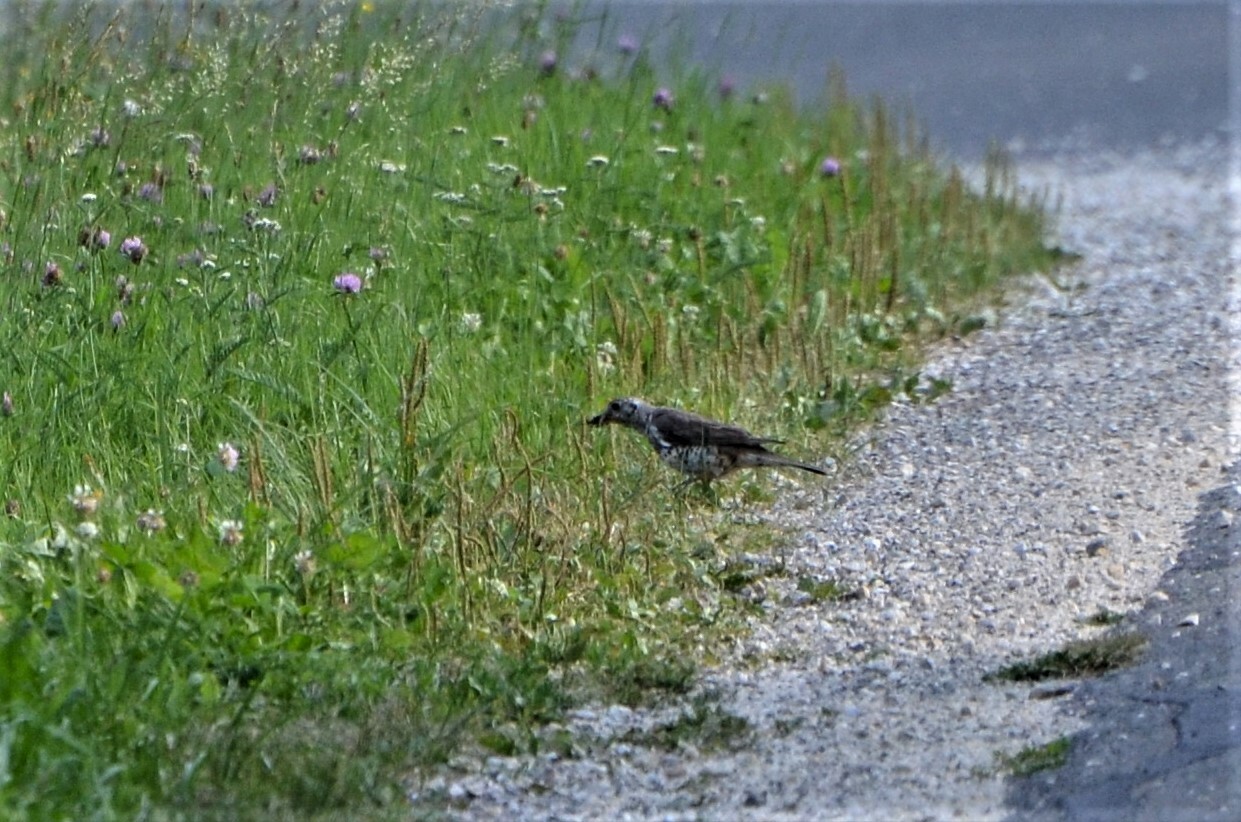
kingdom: Animalia
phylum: Chordata
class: Aves
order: Passeriformes
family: Turdidae
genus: Turdus
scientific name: Turdus viscivorus
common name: Mistle thrush
